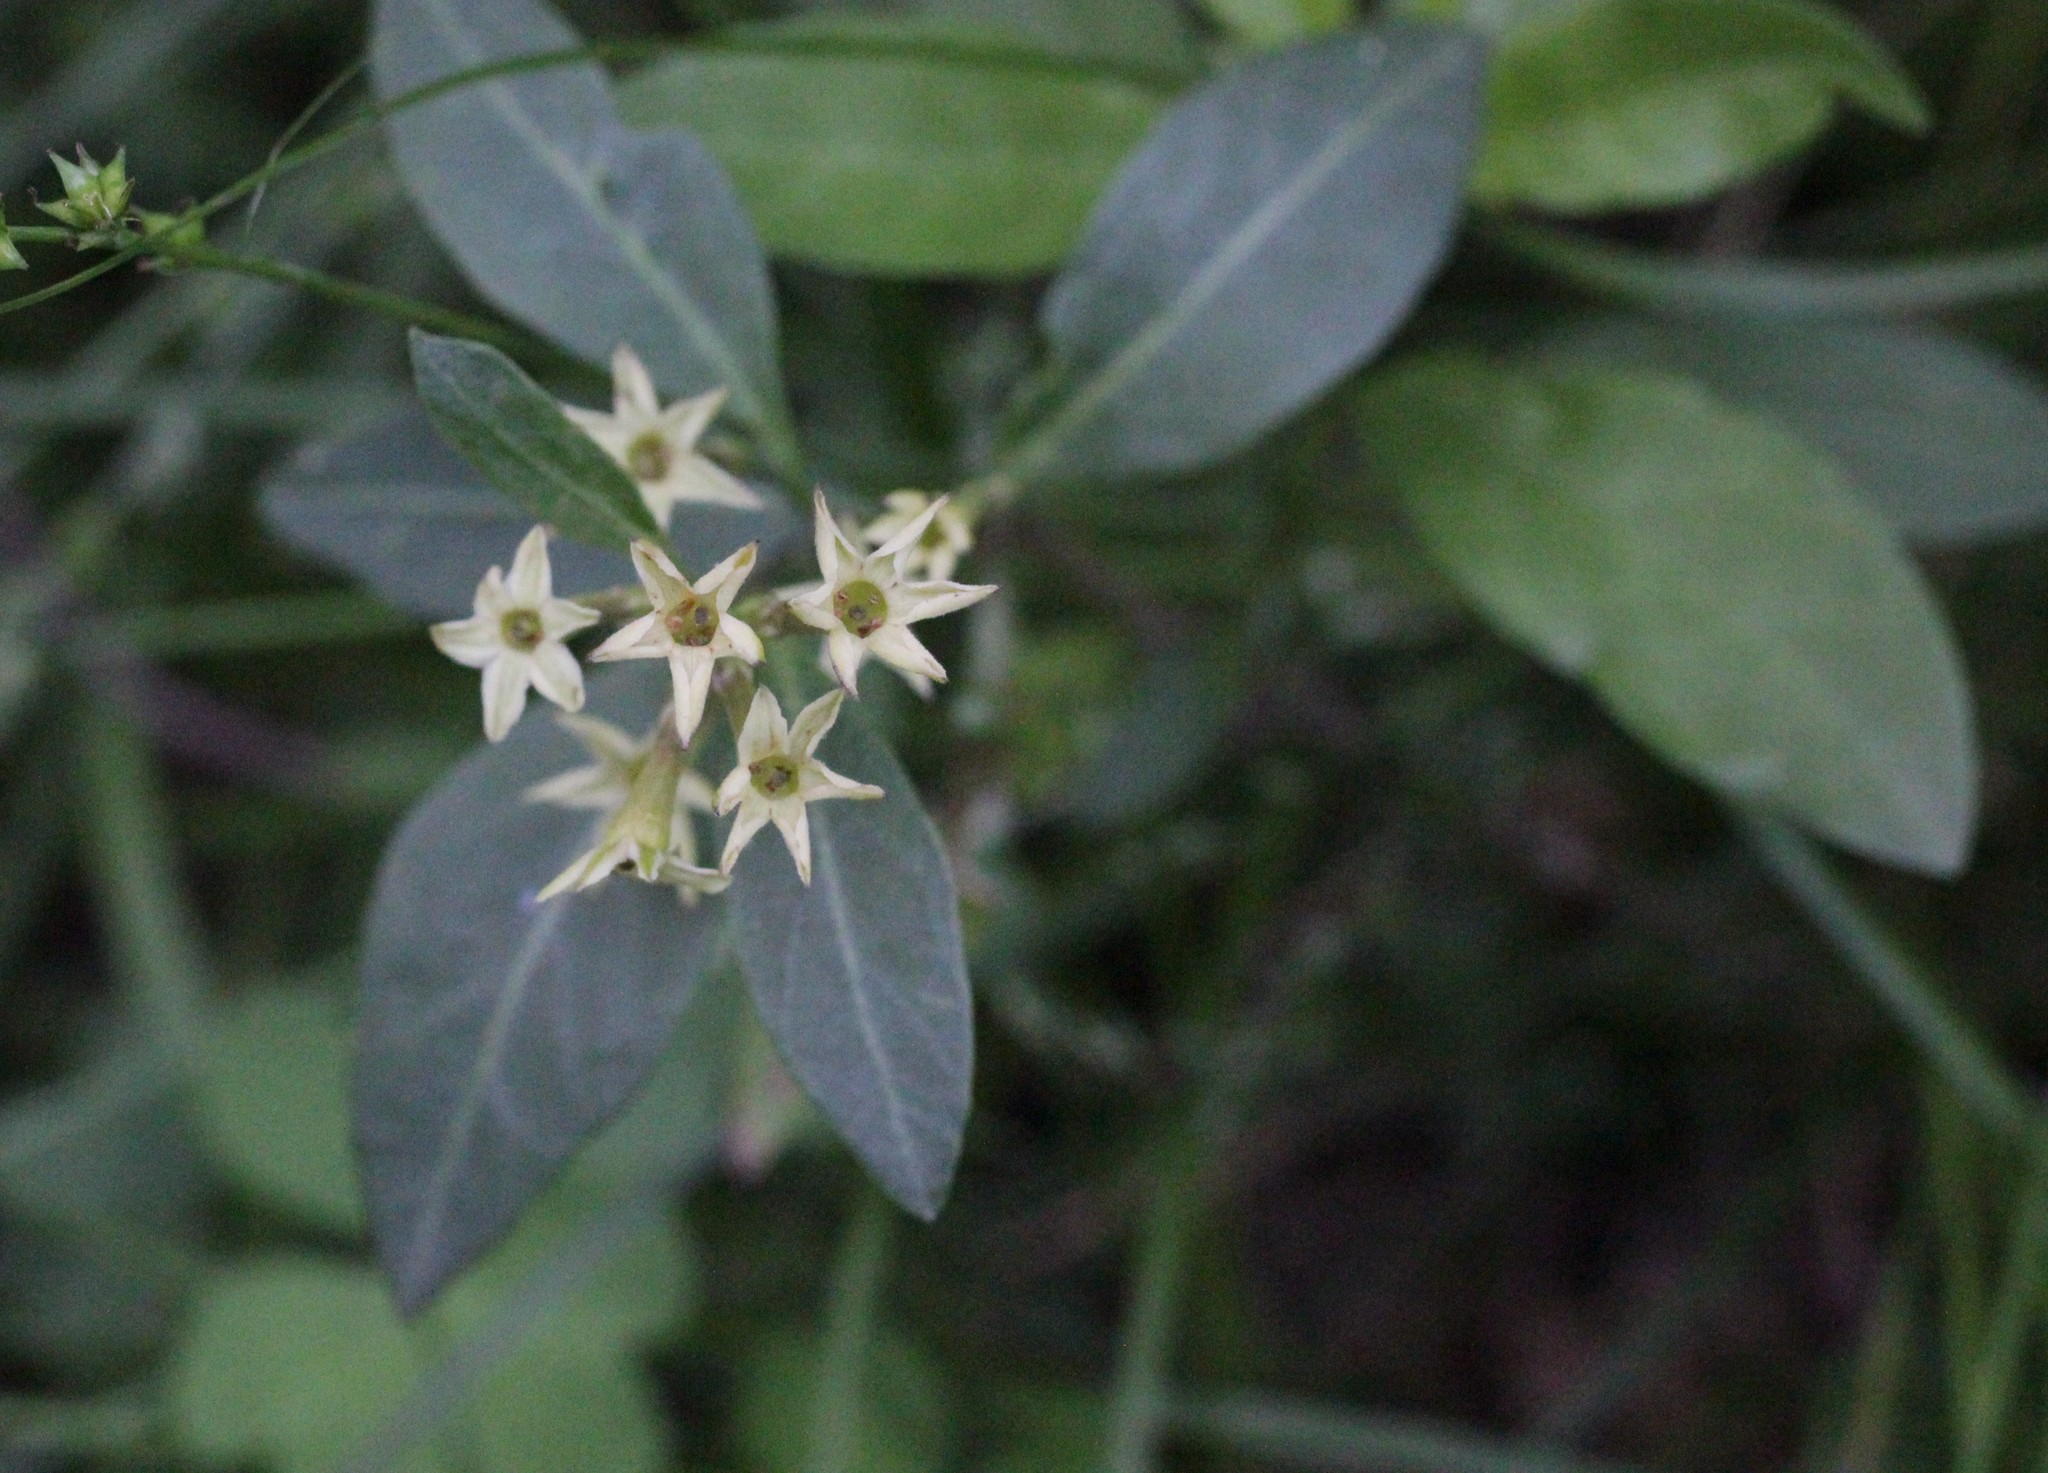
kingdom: Plantae
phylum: Tracheophyta
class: Magnoliopsida
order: Solanales
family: Solanaceae
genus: Cestrum
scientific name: Cestrum parqui
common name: Chilean cestrum
